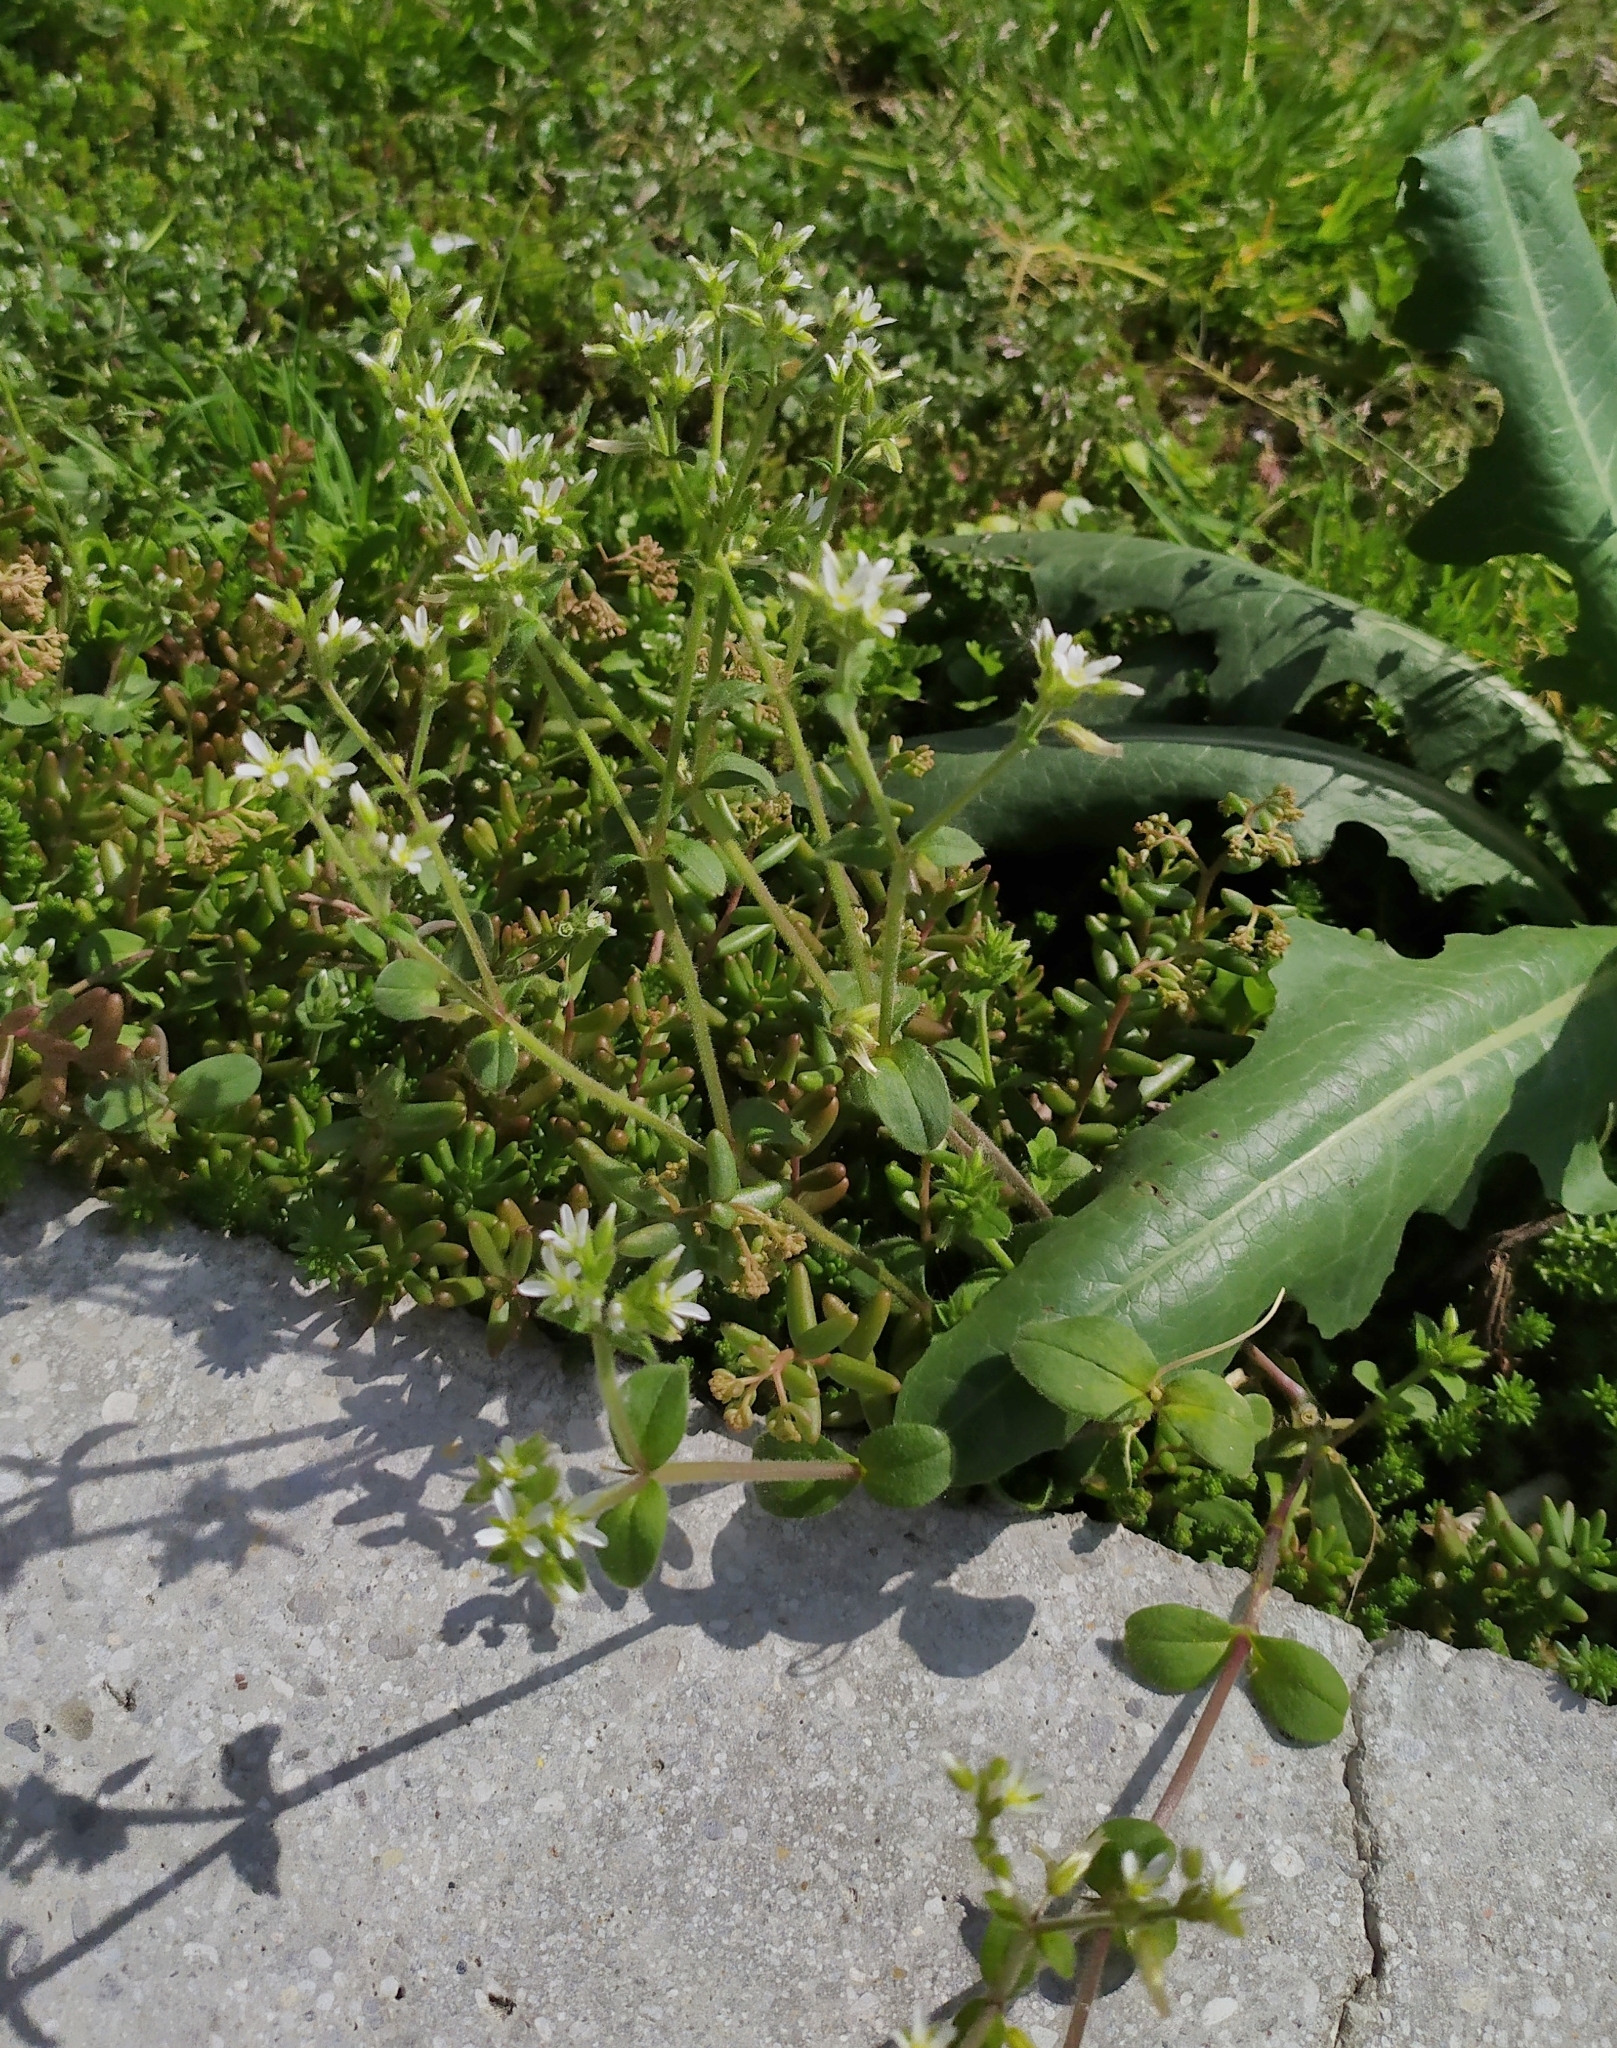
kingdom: Plantae
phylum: Tracheophyta
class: Magnoliopsida
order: Caryophyllales
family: Caryophyllaceae
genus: Cerastium
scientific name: Cerastium glomeratum
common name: Sticky chickweed
